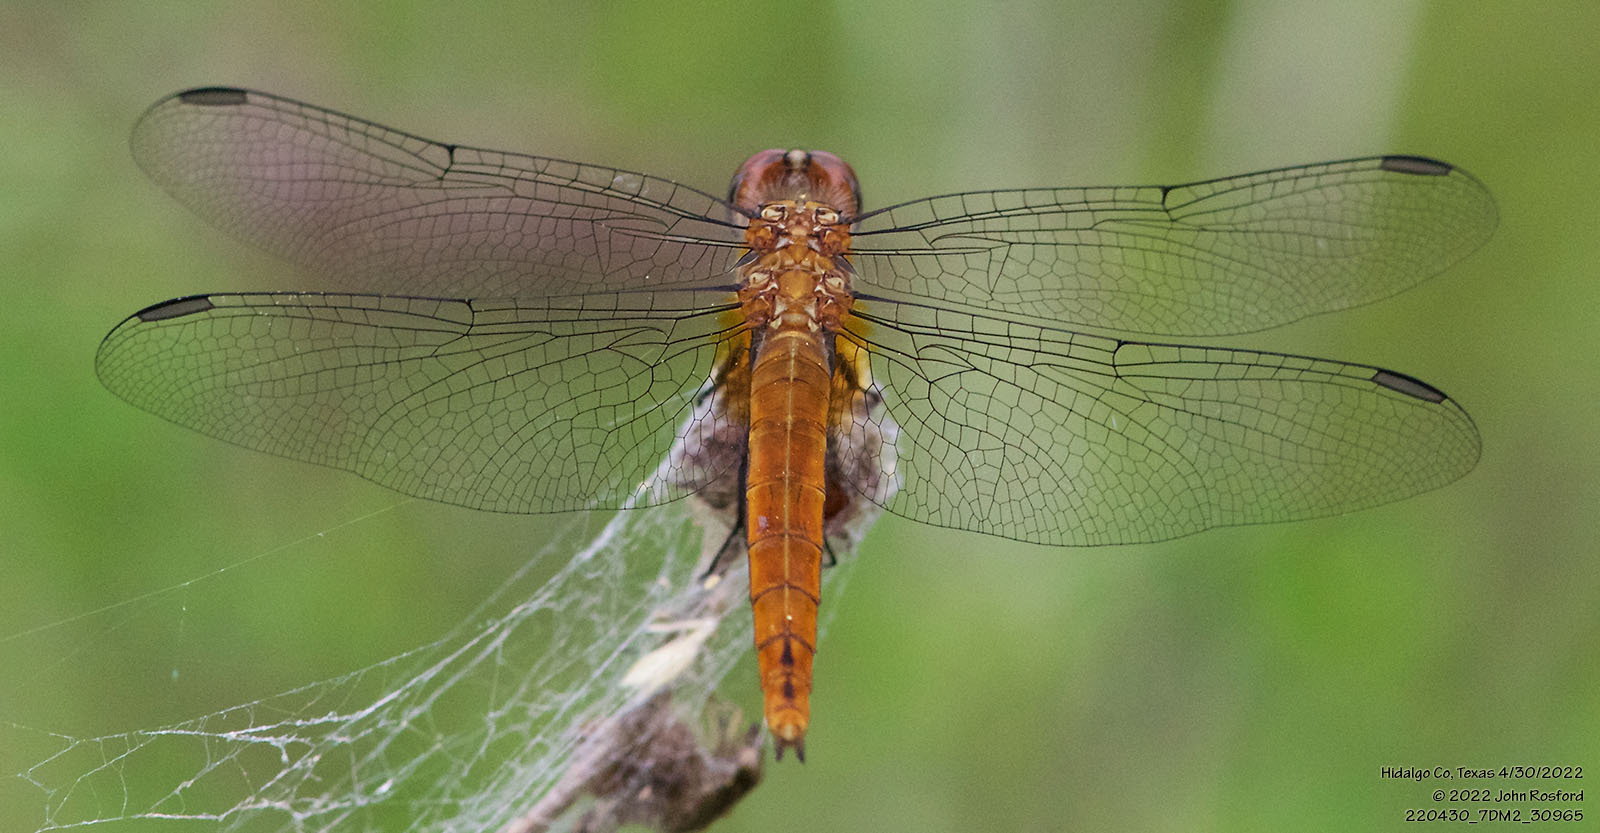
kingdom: Animalia
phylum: Arthropoda
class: Insecta
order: Odonata
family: Libellulidae
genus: Brachymesia
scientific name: Brachymesia furcata
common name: Red-taled pennant
